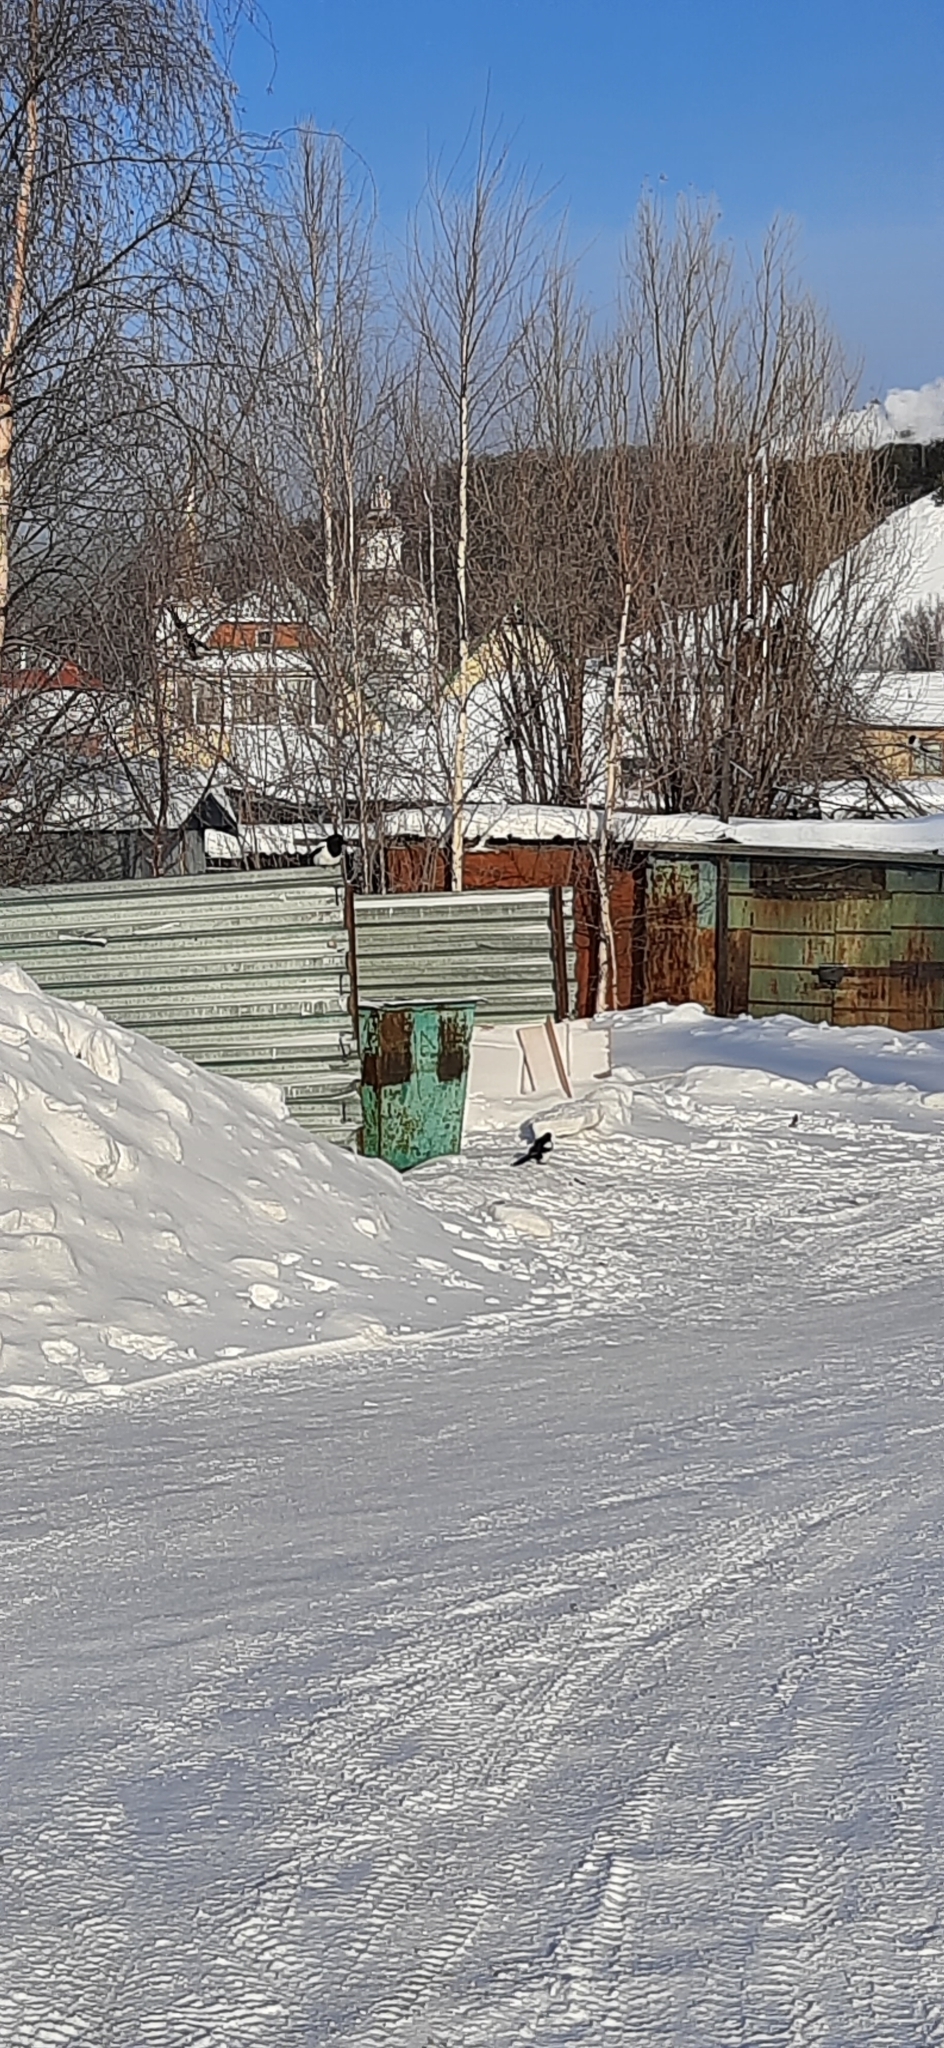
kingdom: Animalia
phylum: Chordata
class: Aves
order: Passeriformes
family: Corvidae
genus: Pica
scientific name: Pica pica
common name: Eurasian magpie
